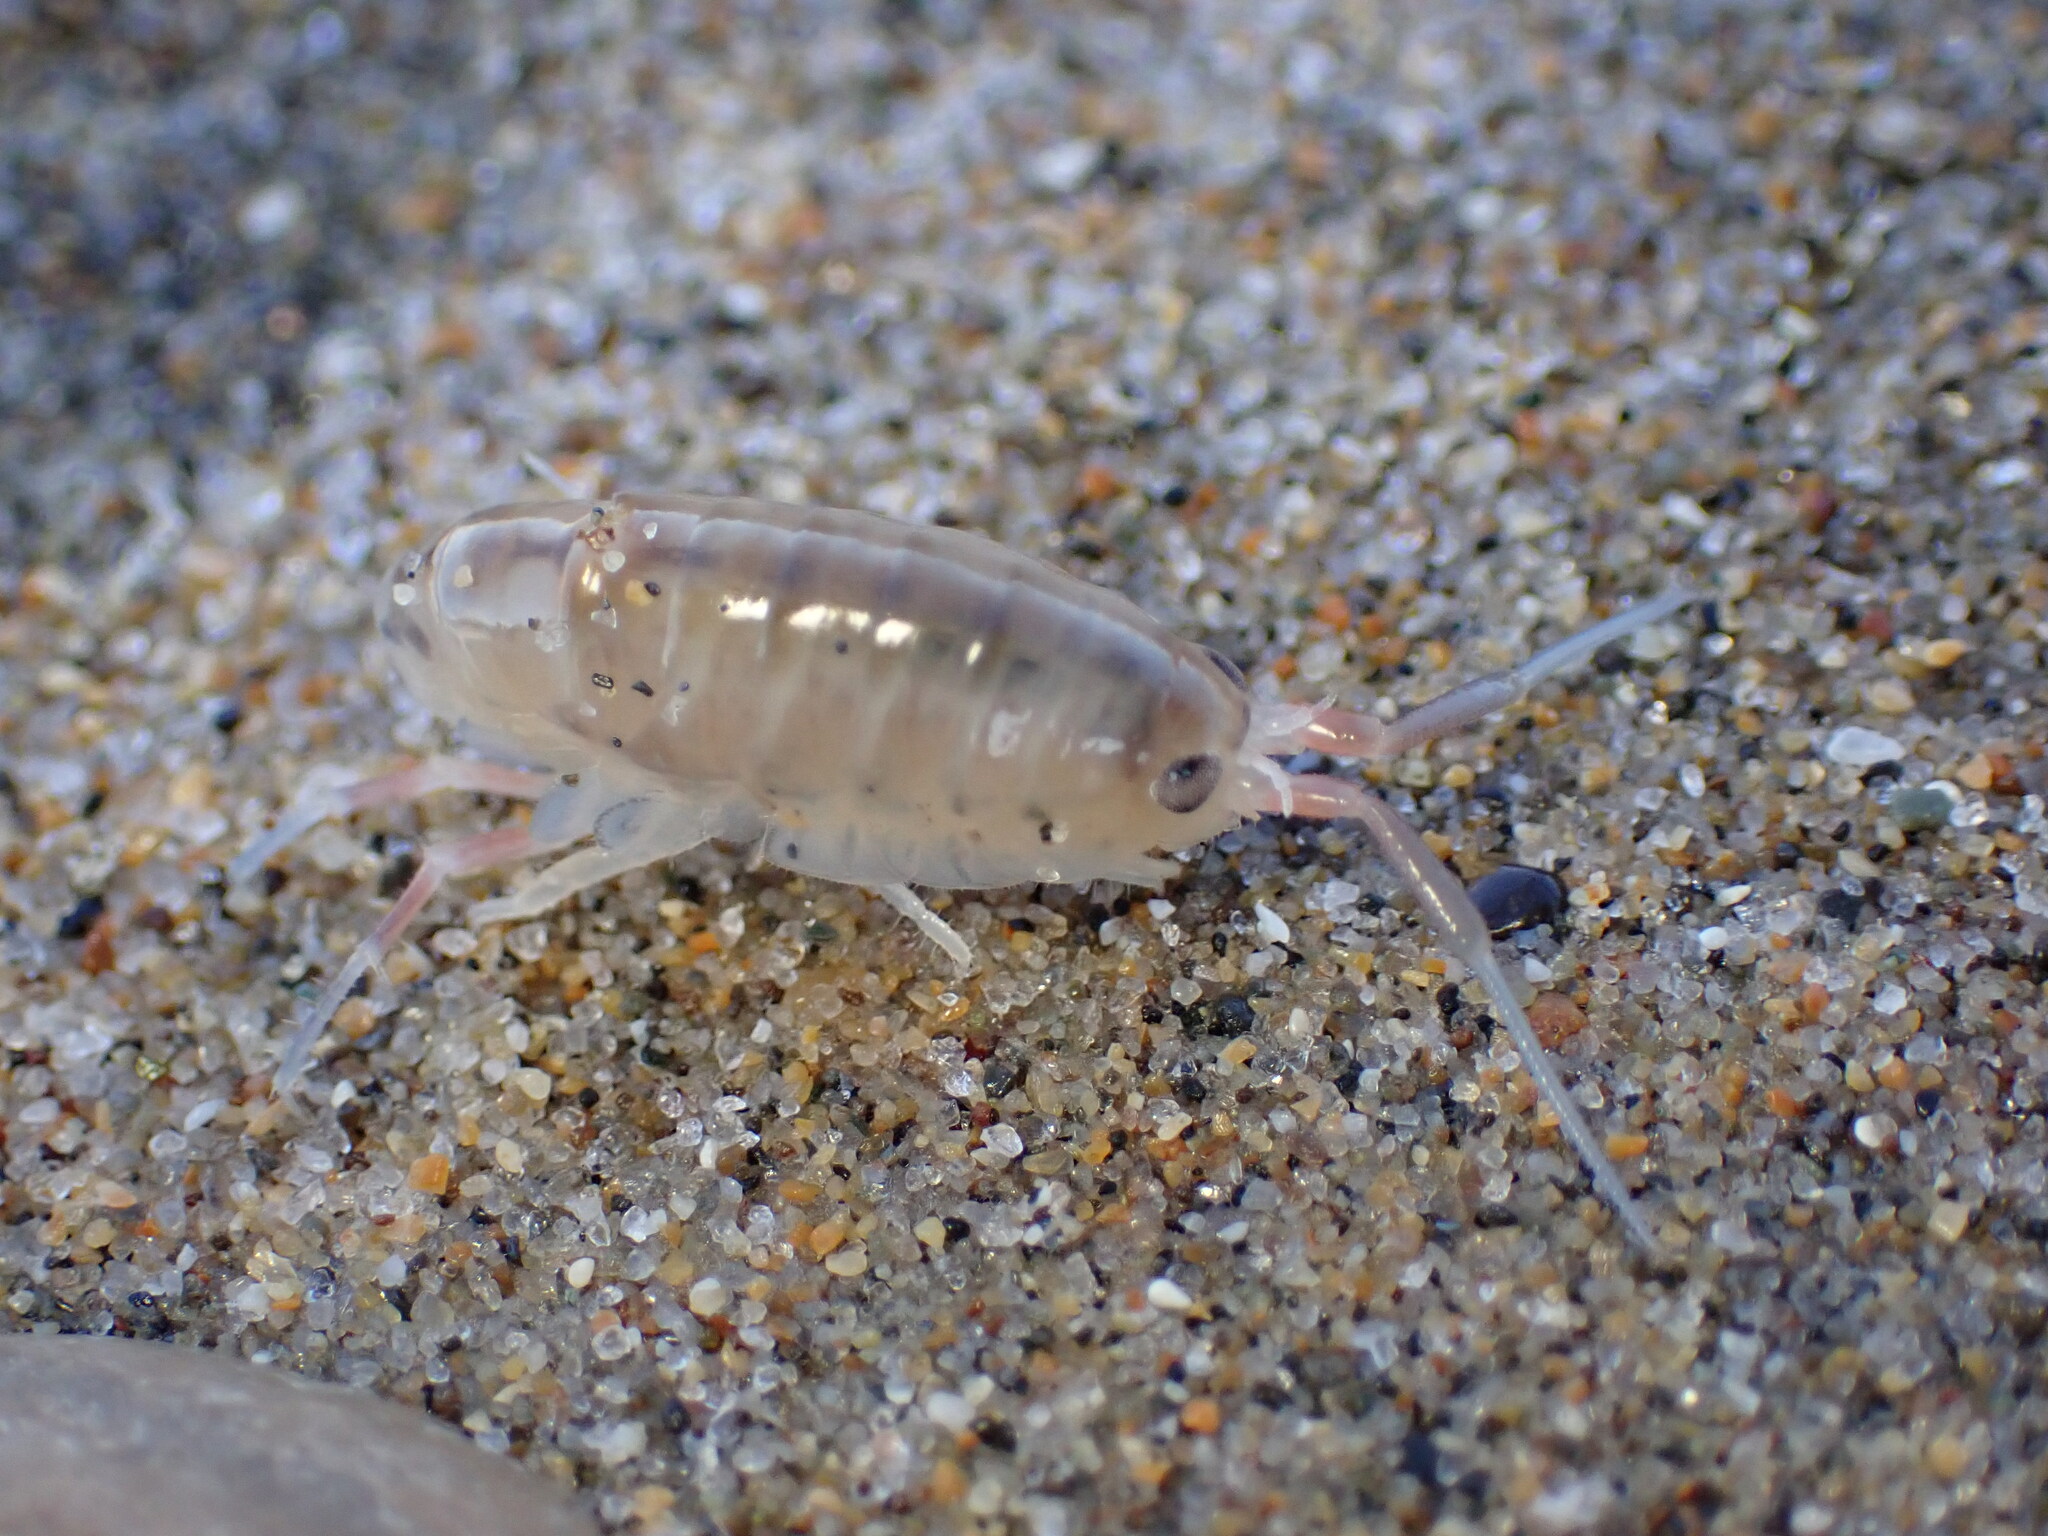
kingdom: Animalia
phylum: Arthropoda
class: Malacostraca
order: Amphipoda
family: Talitridae
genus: Megalorchestia
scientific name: Megalorchestia californiana
